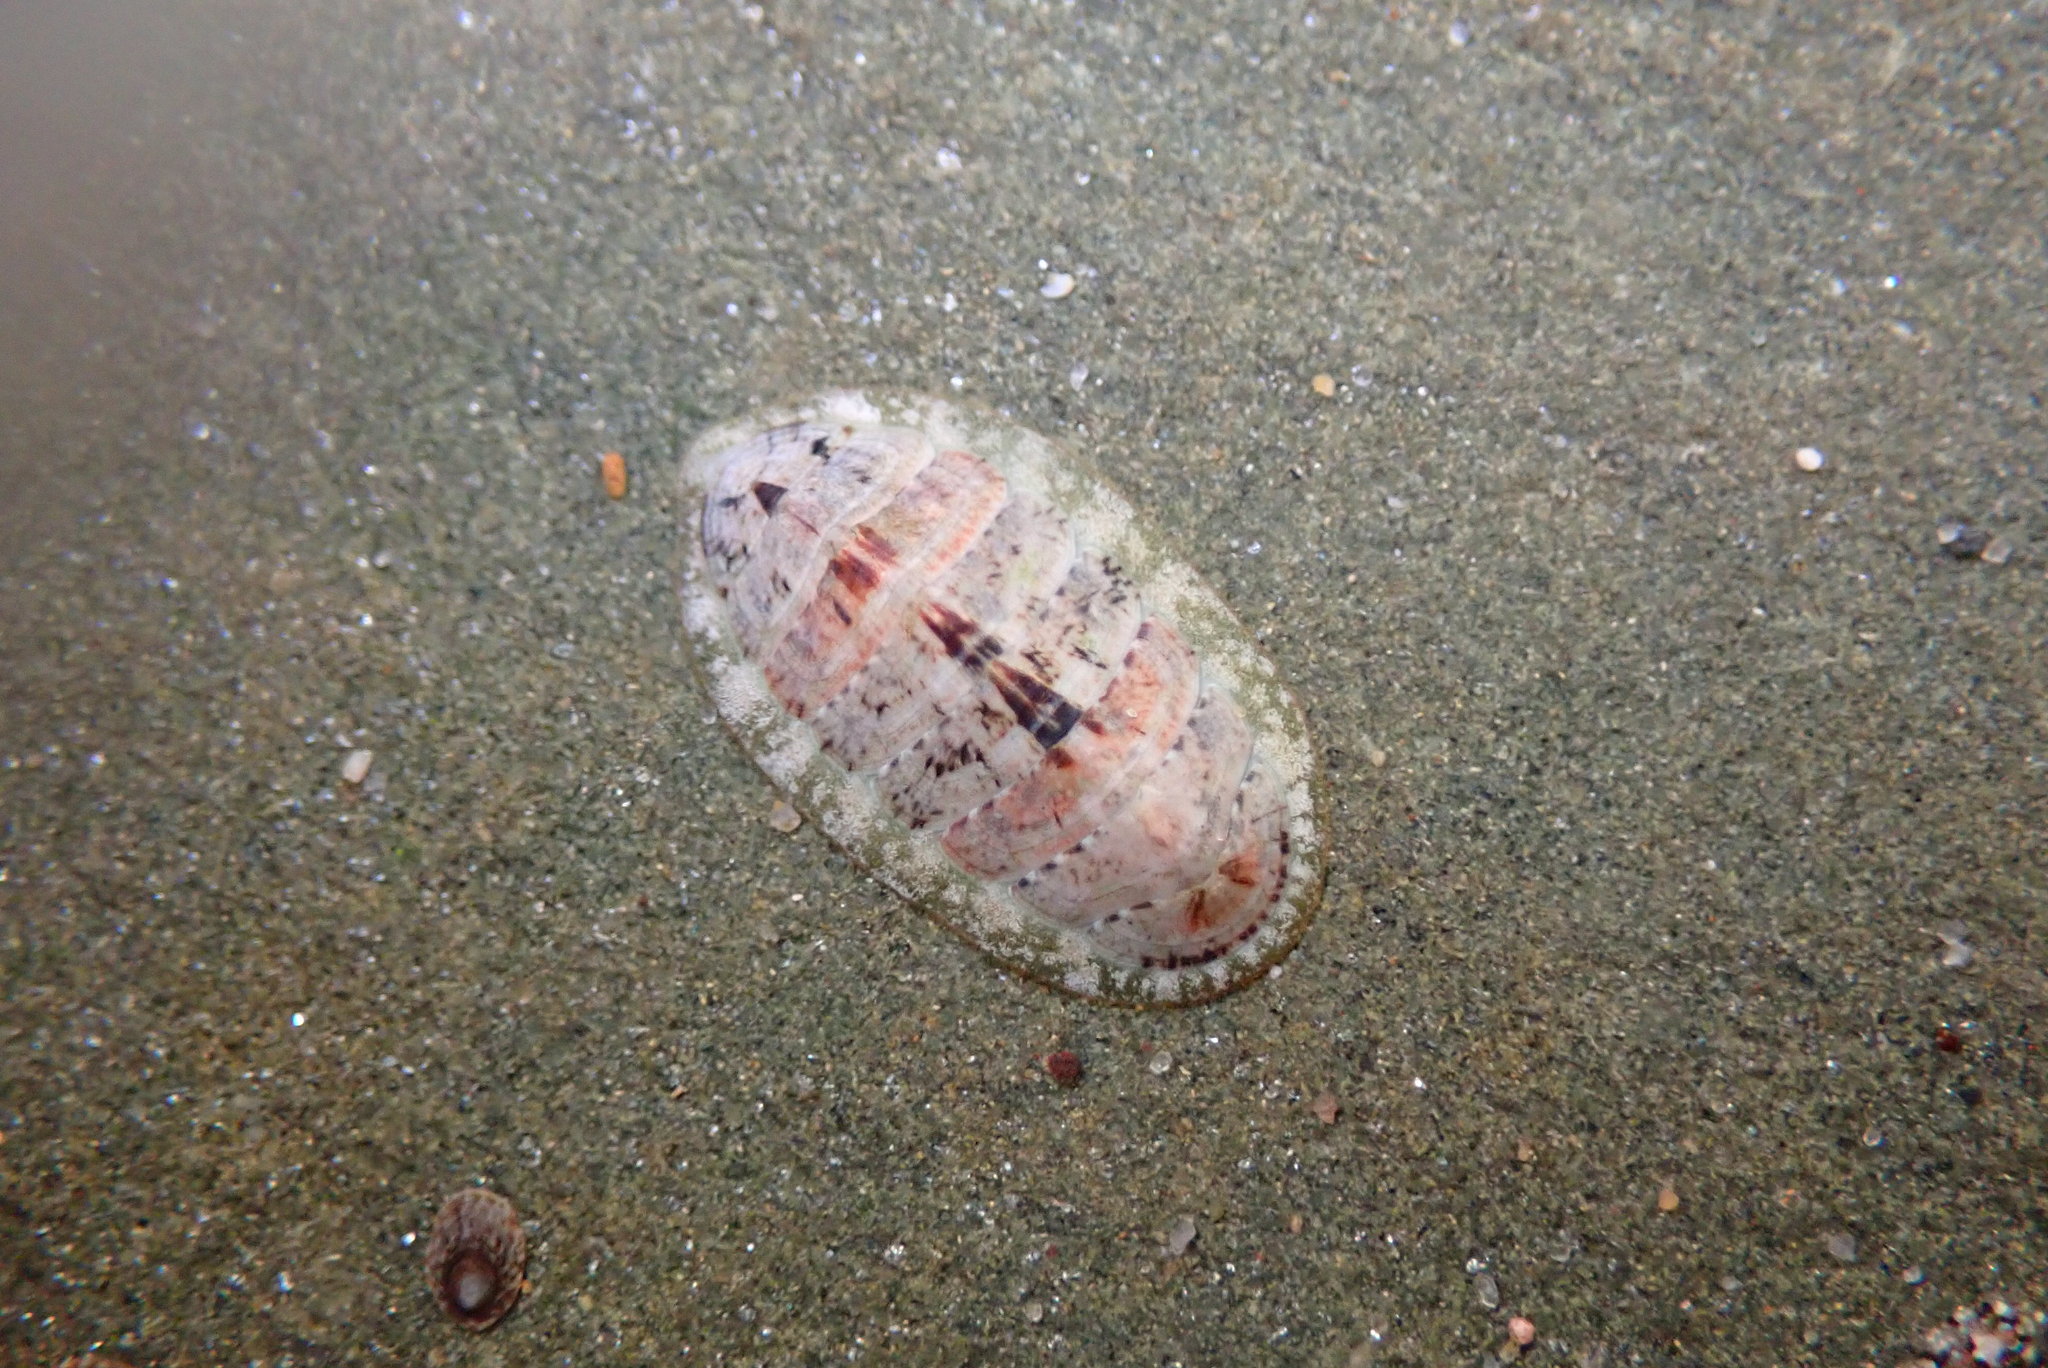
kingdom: Animalia
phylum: Mollusca
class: Polyplacophora
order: Chitonida
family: Tonicellidae
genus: Cyanoplax
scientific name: Cyanoplax keepiana
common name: Keep's chiton
